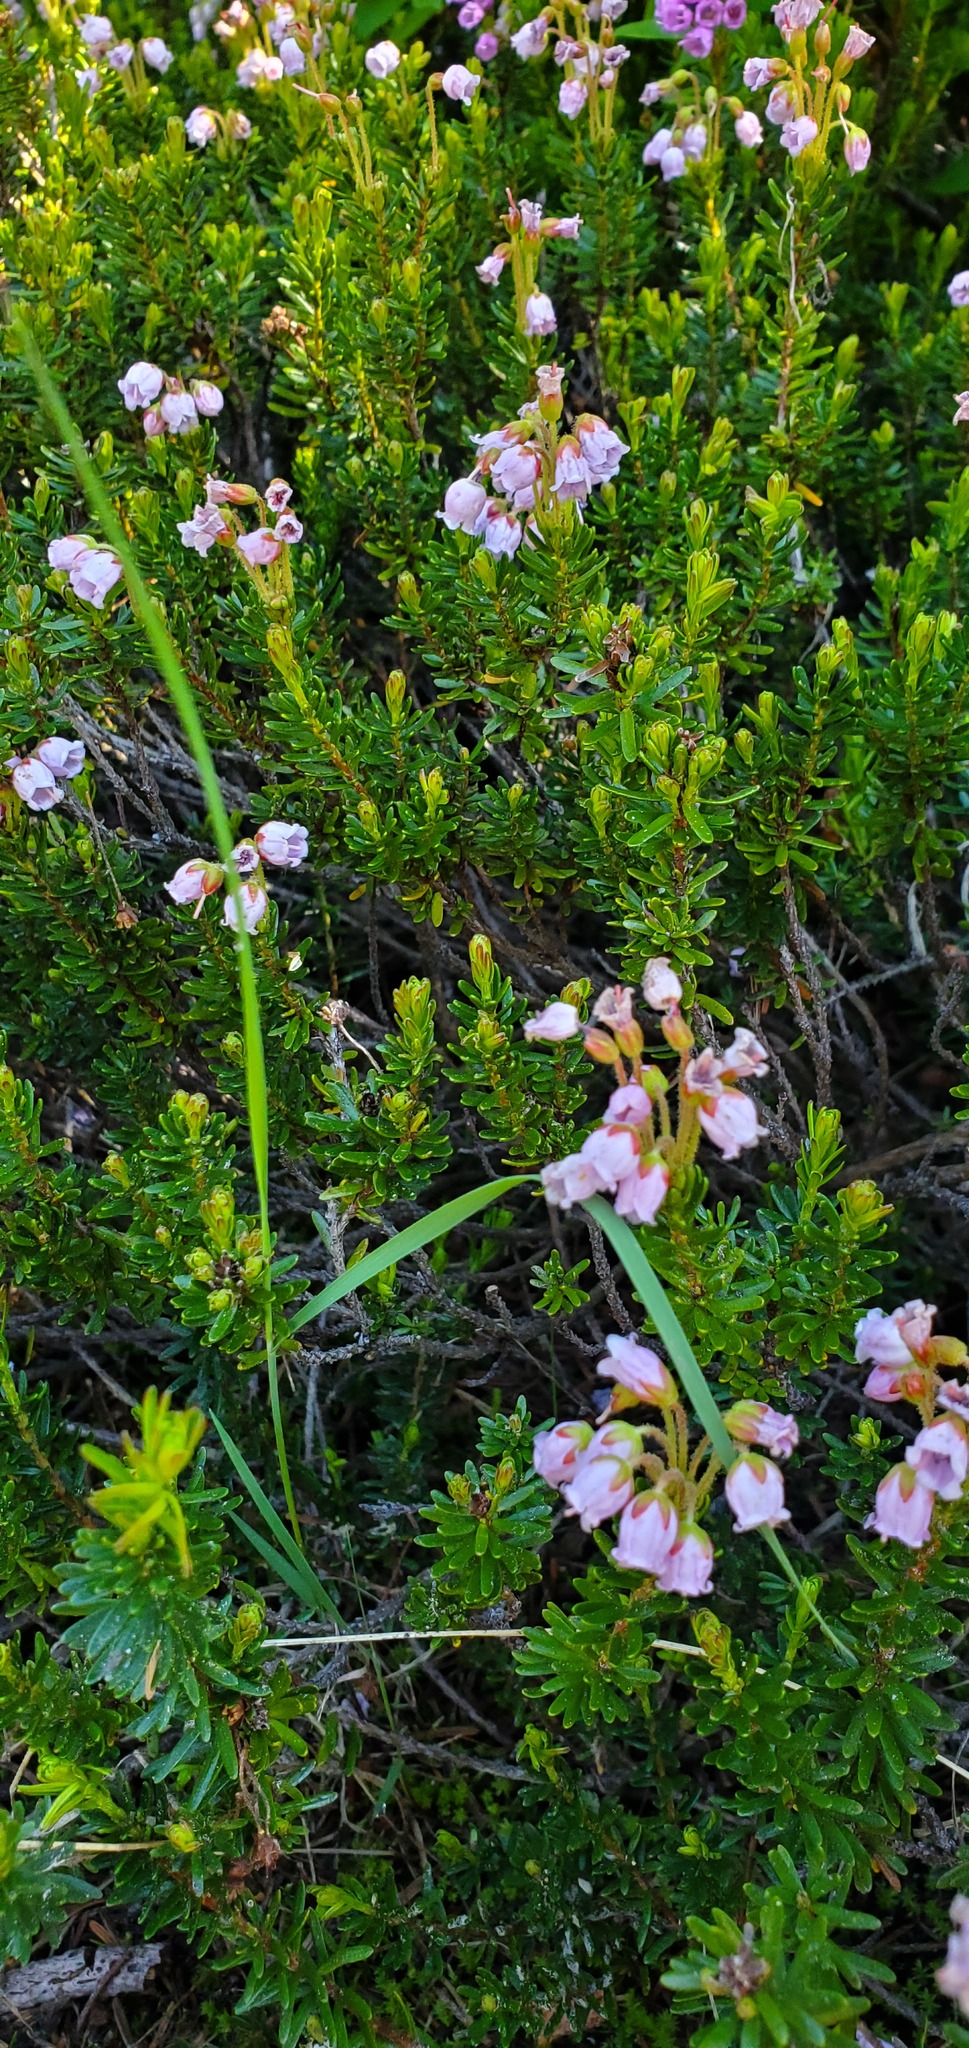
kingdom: Plantae
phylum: Tracheophyta
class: Magnoliopsida
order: Ericales
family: Ericaceae
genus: Phyllodoce
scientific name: Phyllodoce intermedia
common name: Hybrid mountain heather
